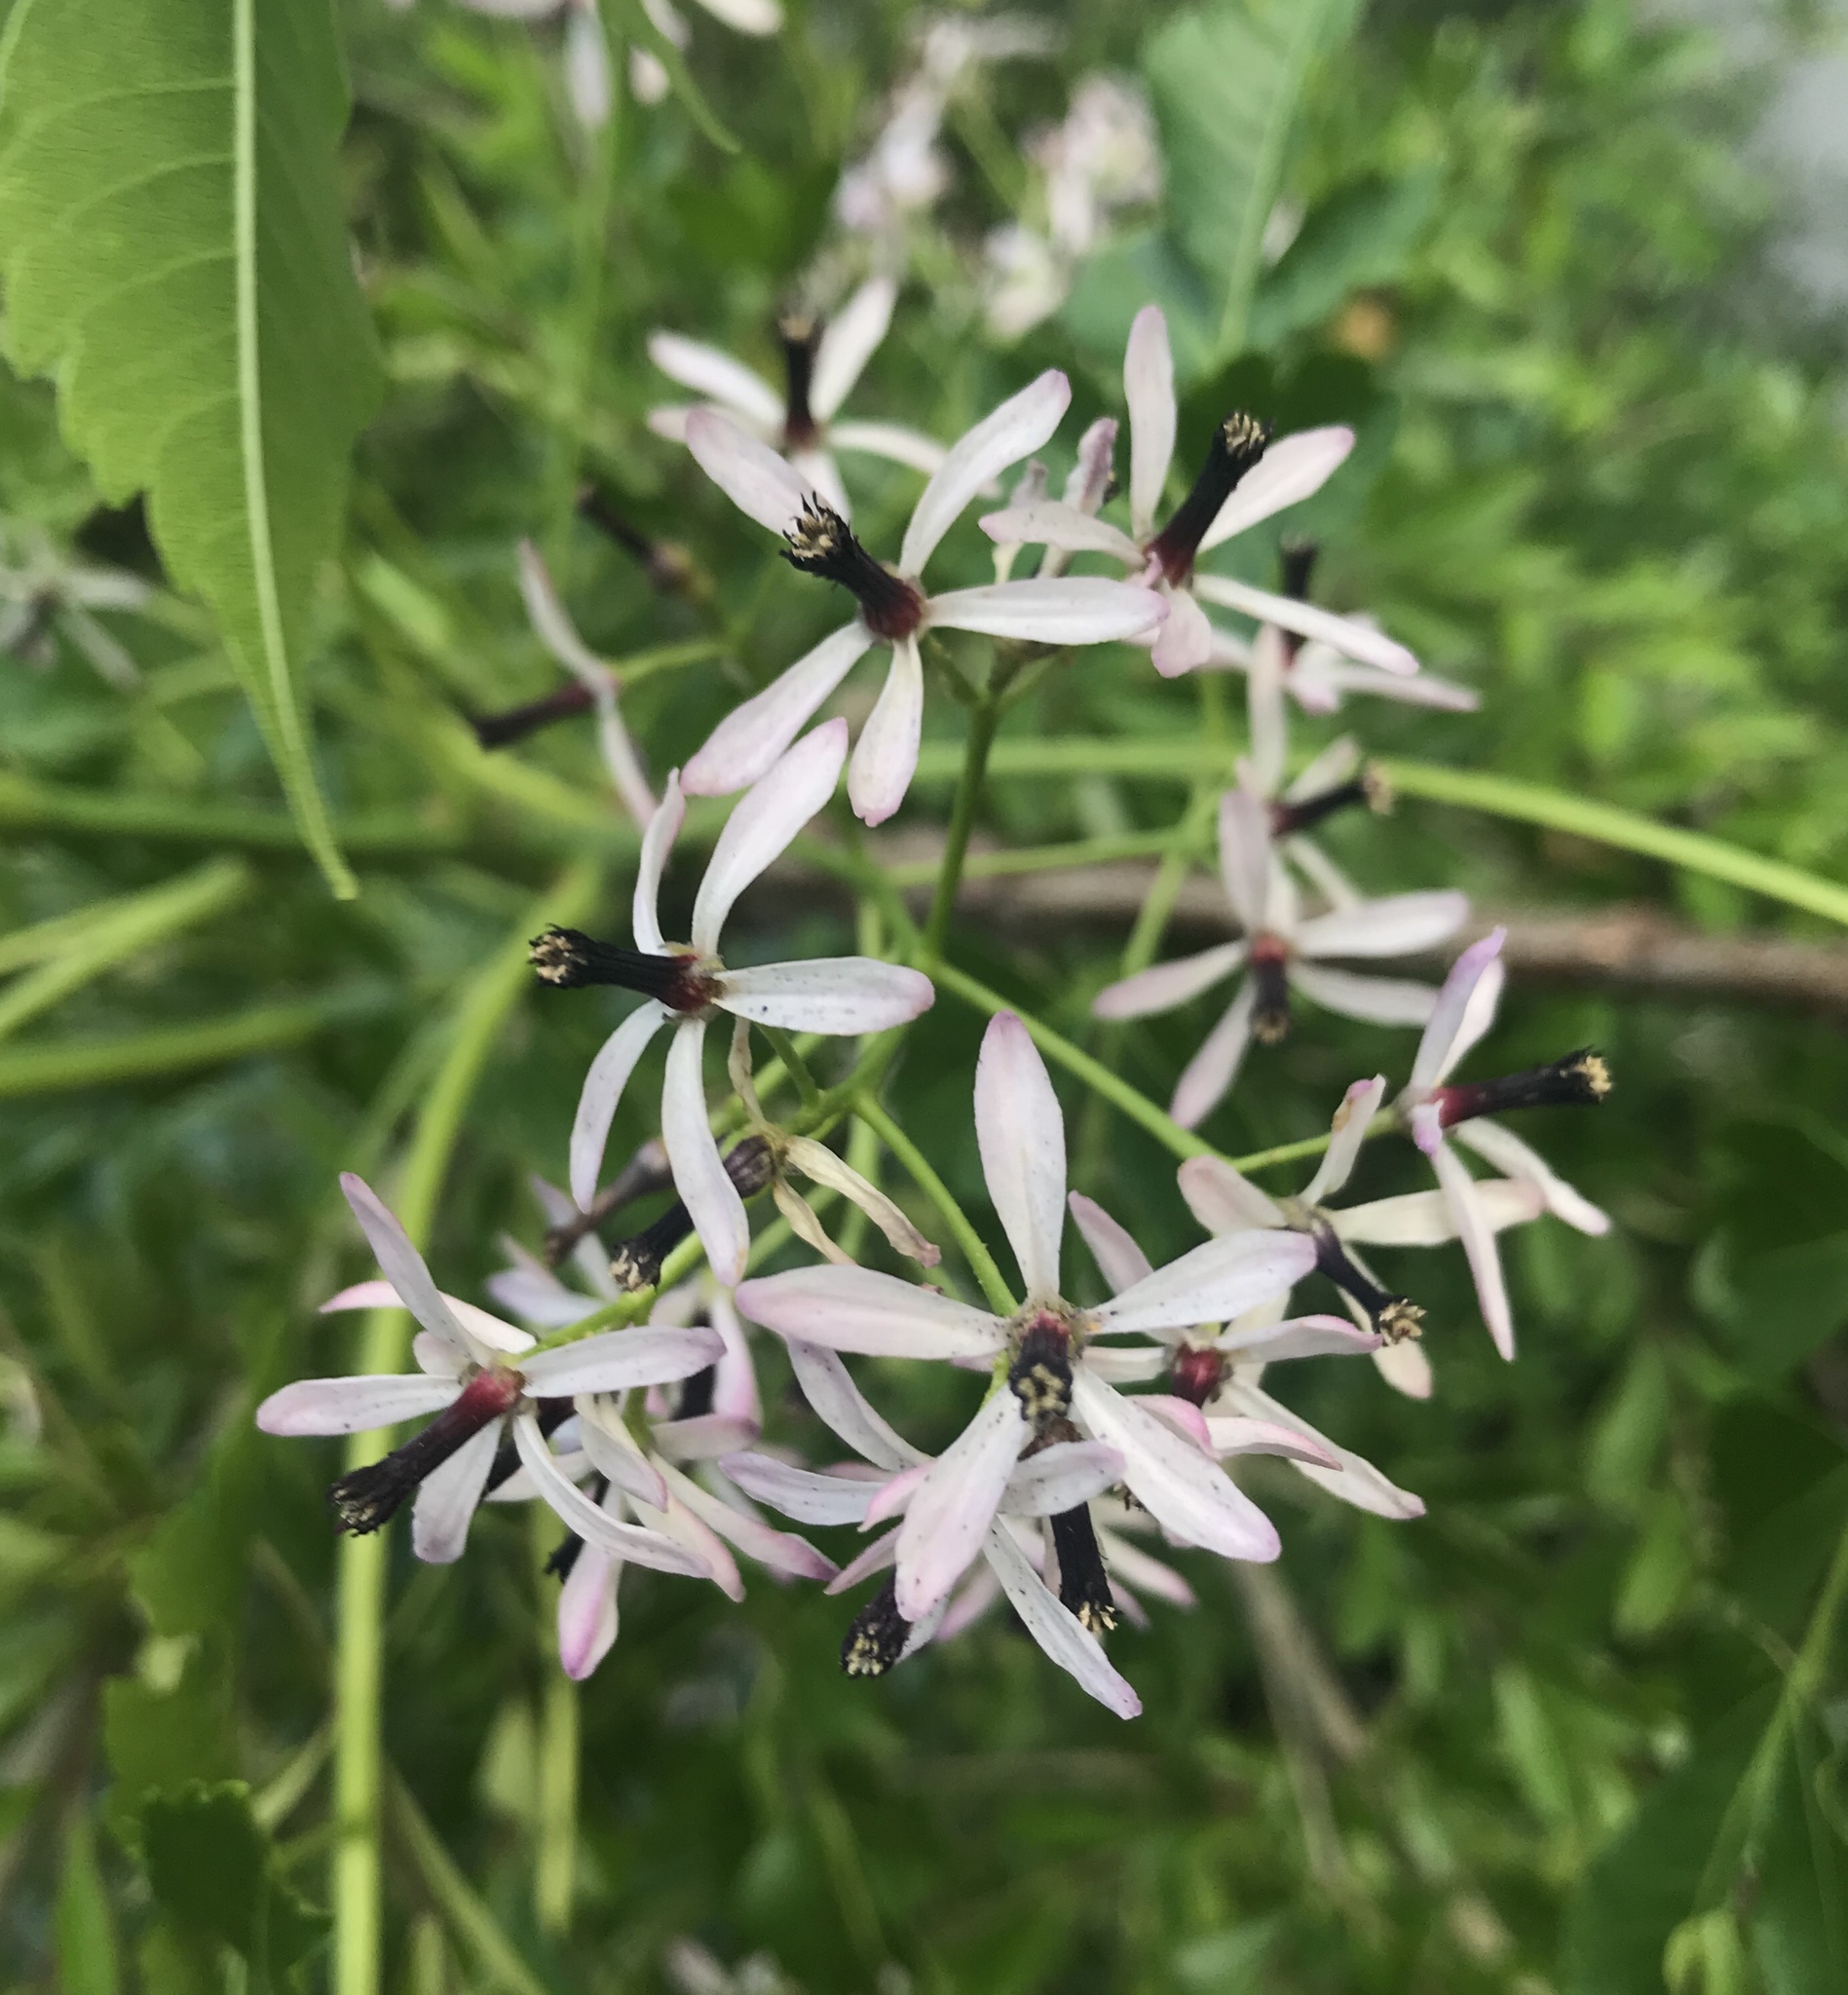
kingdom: Plantae
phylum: Tracheophyta
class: Magnoliopsida
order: Sapindales
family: Meliaceae
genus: Melia
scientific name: Melia azedarach
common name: Chinaberrytree
